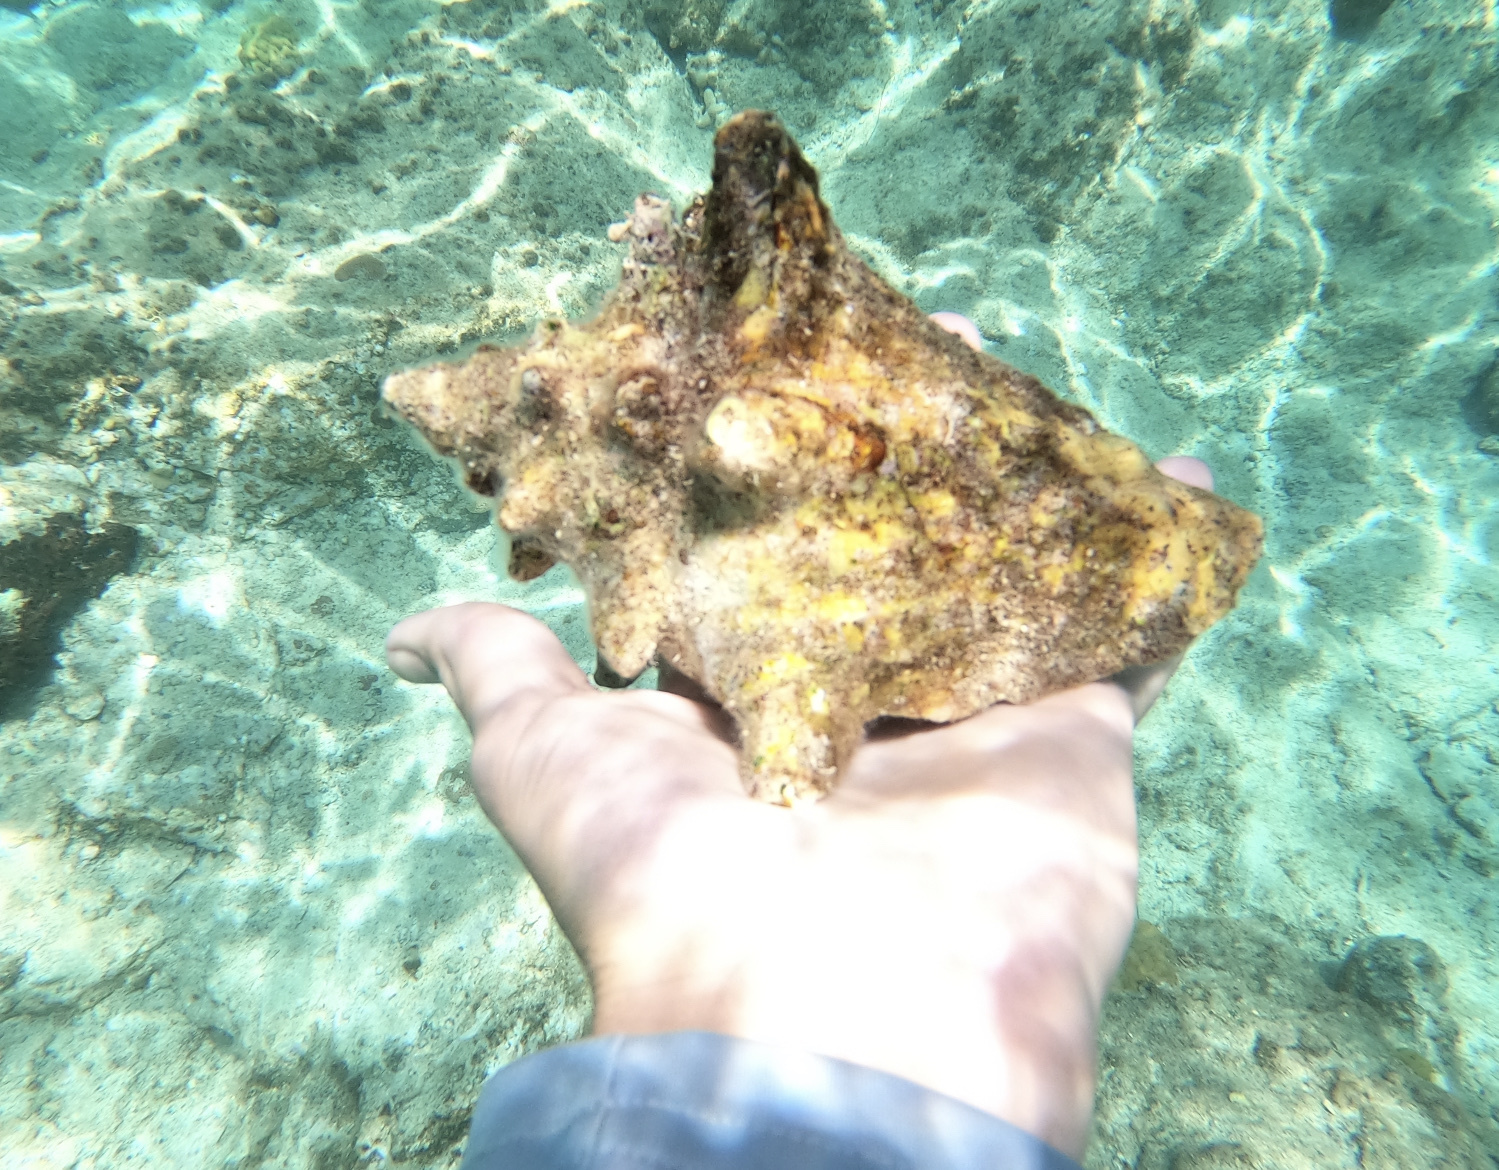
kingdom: Animalia
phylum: Mollusca
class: Gastropoda
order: Littorinimorpha
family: Strombidae
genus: Aliger
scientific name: Aliger gigas
